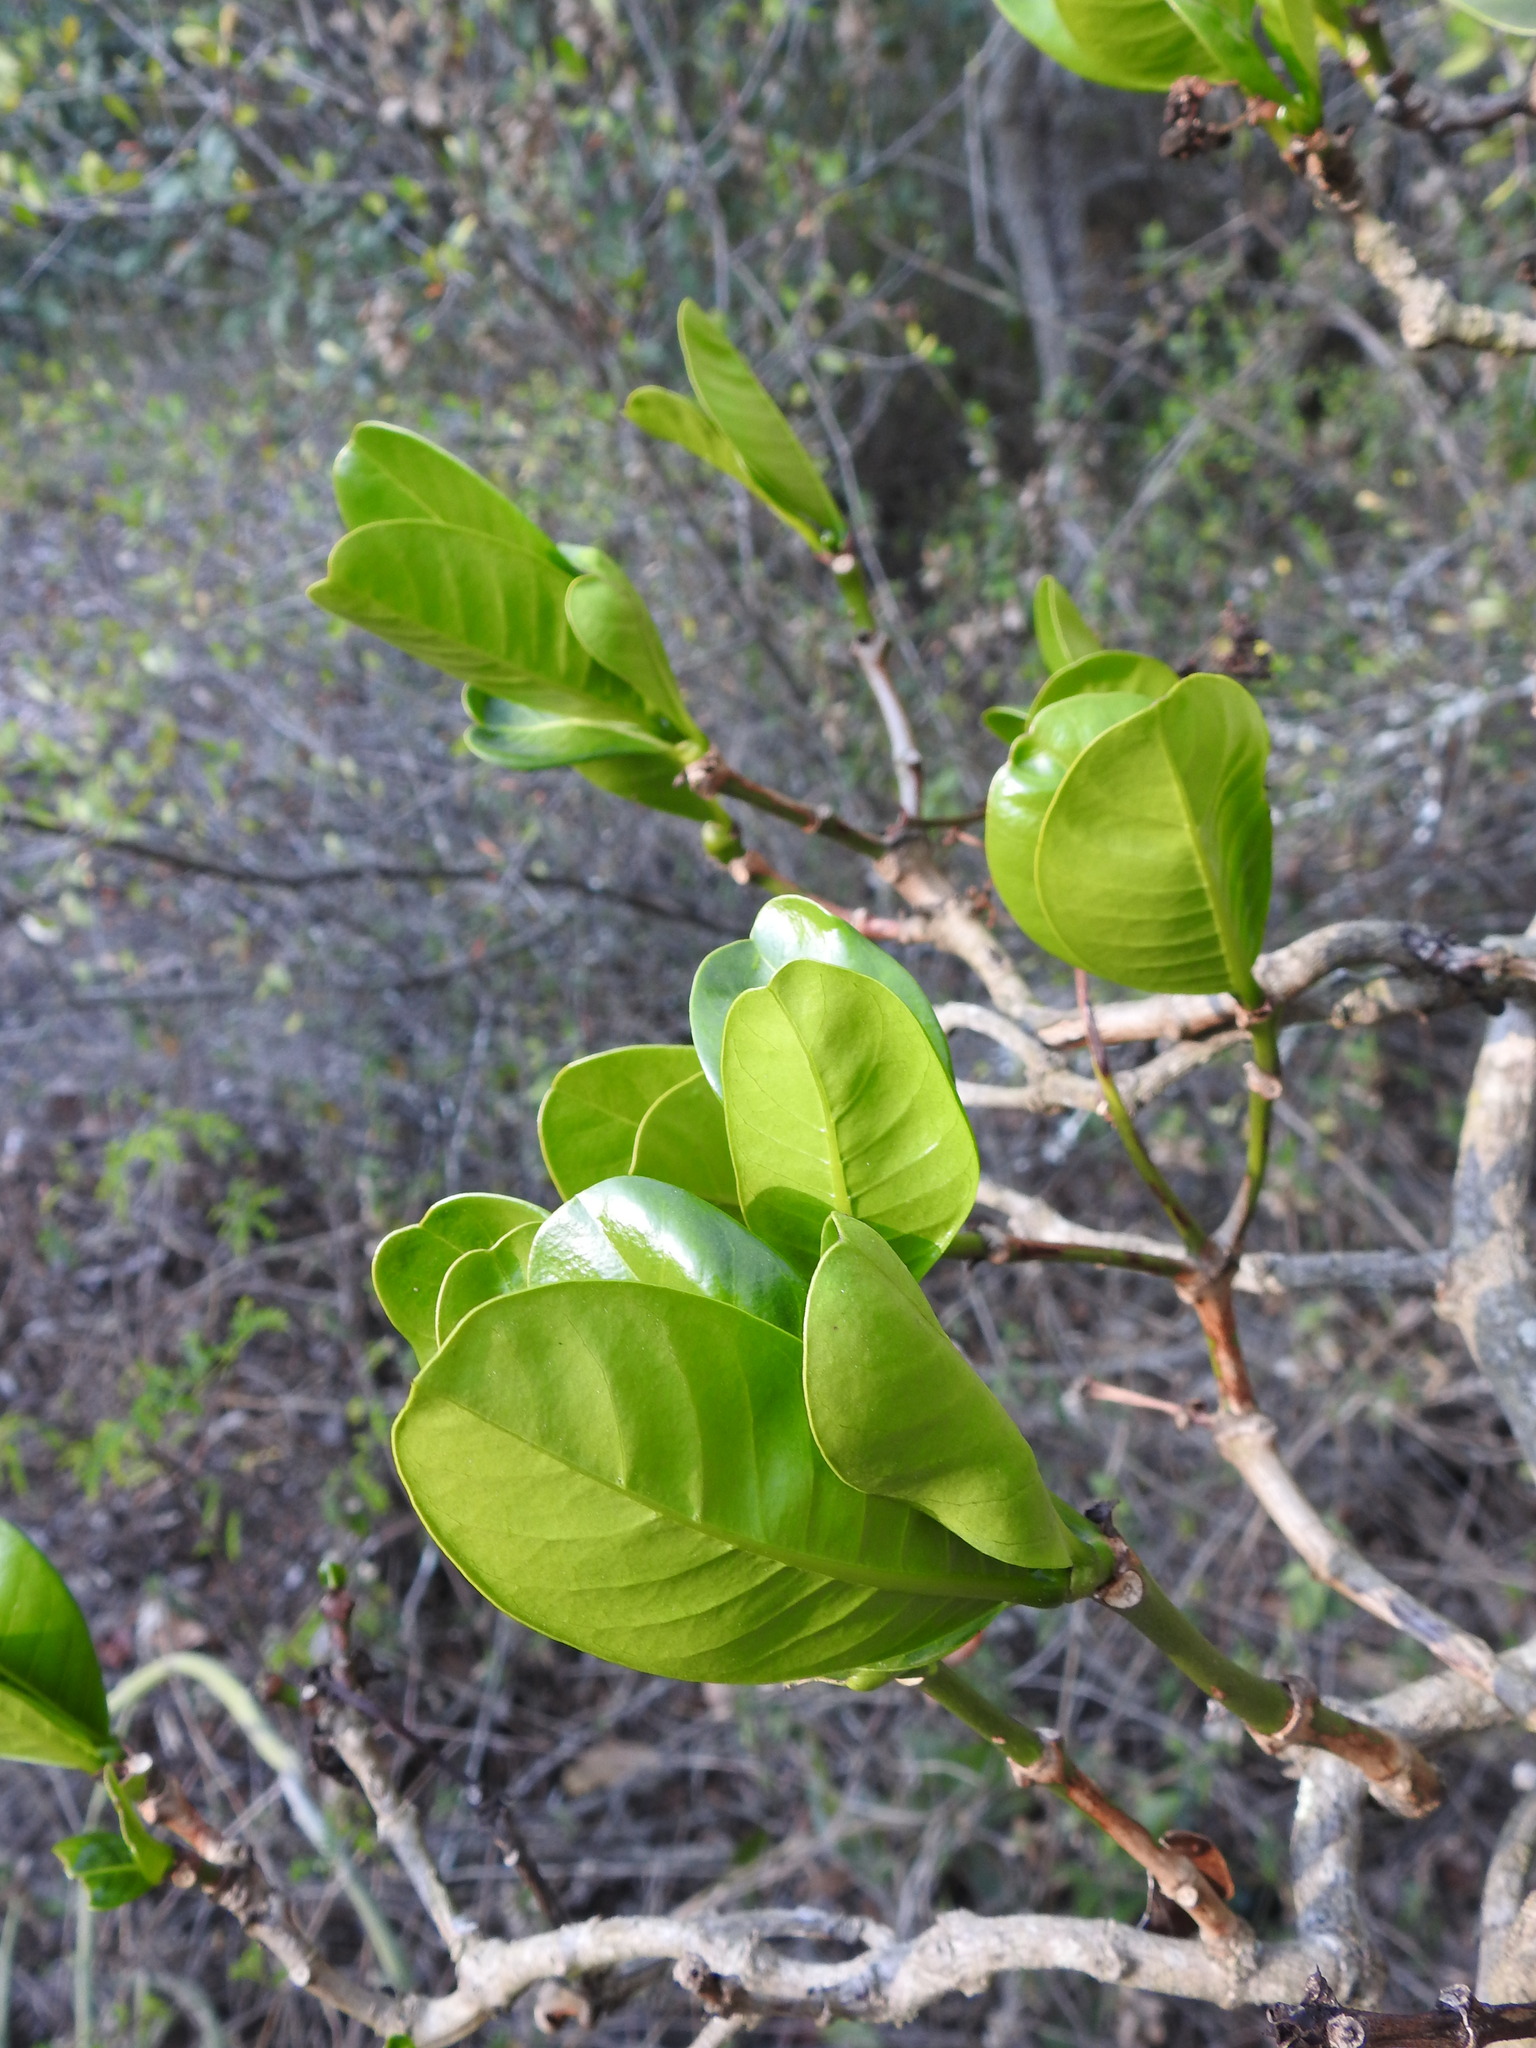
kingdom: Plantae
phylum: Tracheophyta
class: Magnoliopsida
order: Gentianales
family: Rubiaceae
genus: Psychotria
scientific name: Psychotria
